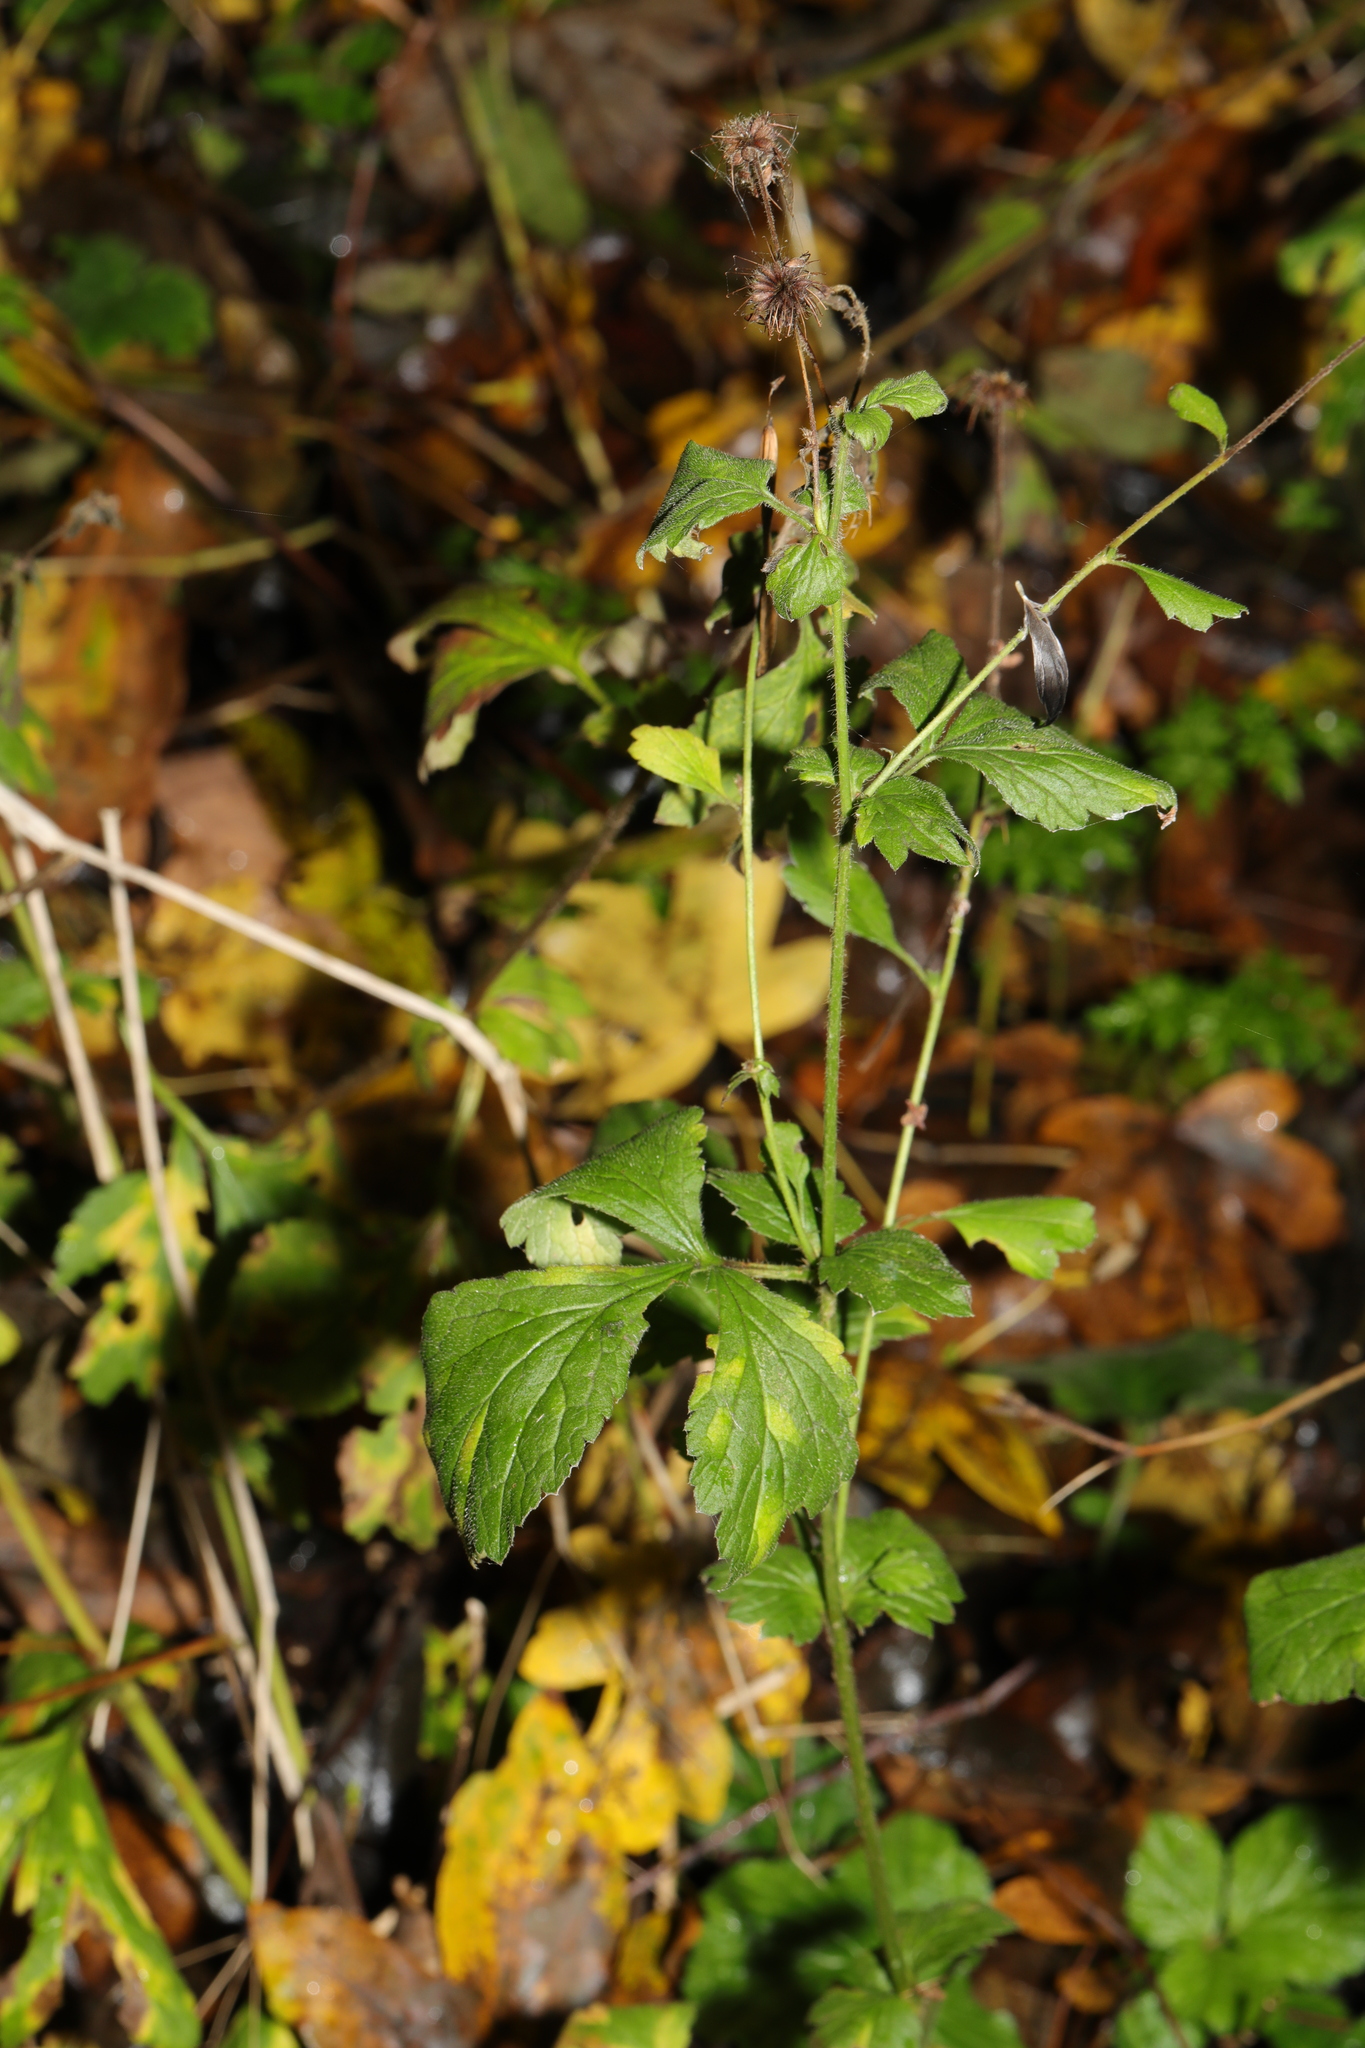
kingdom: Plantae
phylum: Tracheophyta
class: Magnoliopsida
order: Rosales
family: Rosaceae
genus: Geum
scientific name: Geum urbanum
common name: Wood avens
